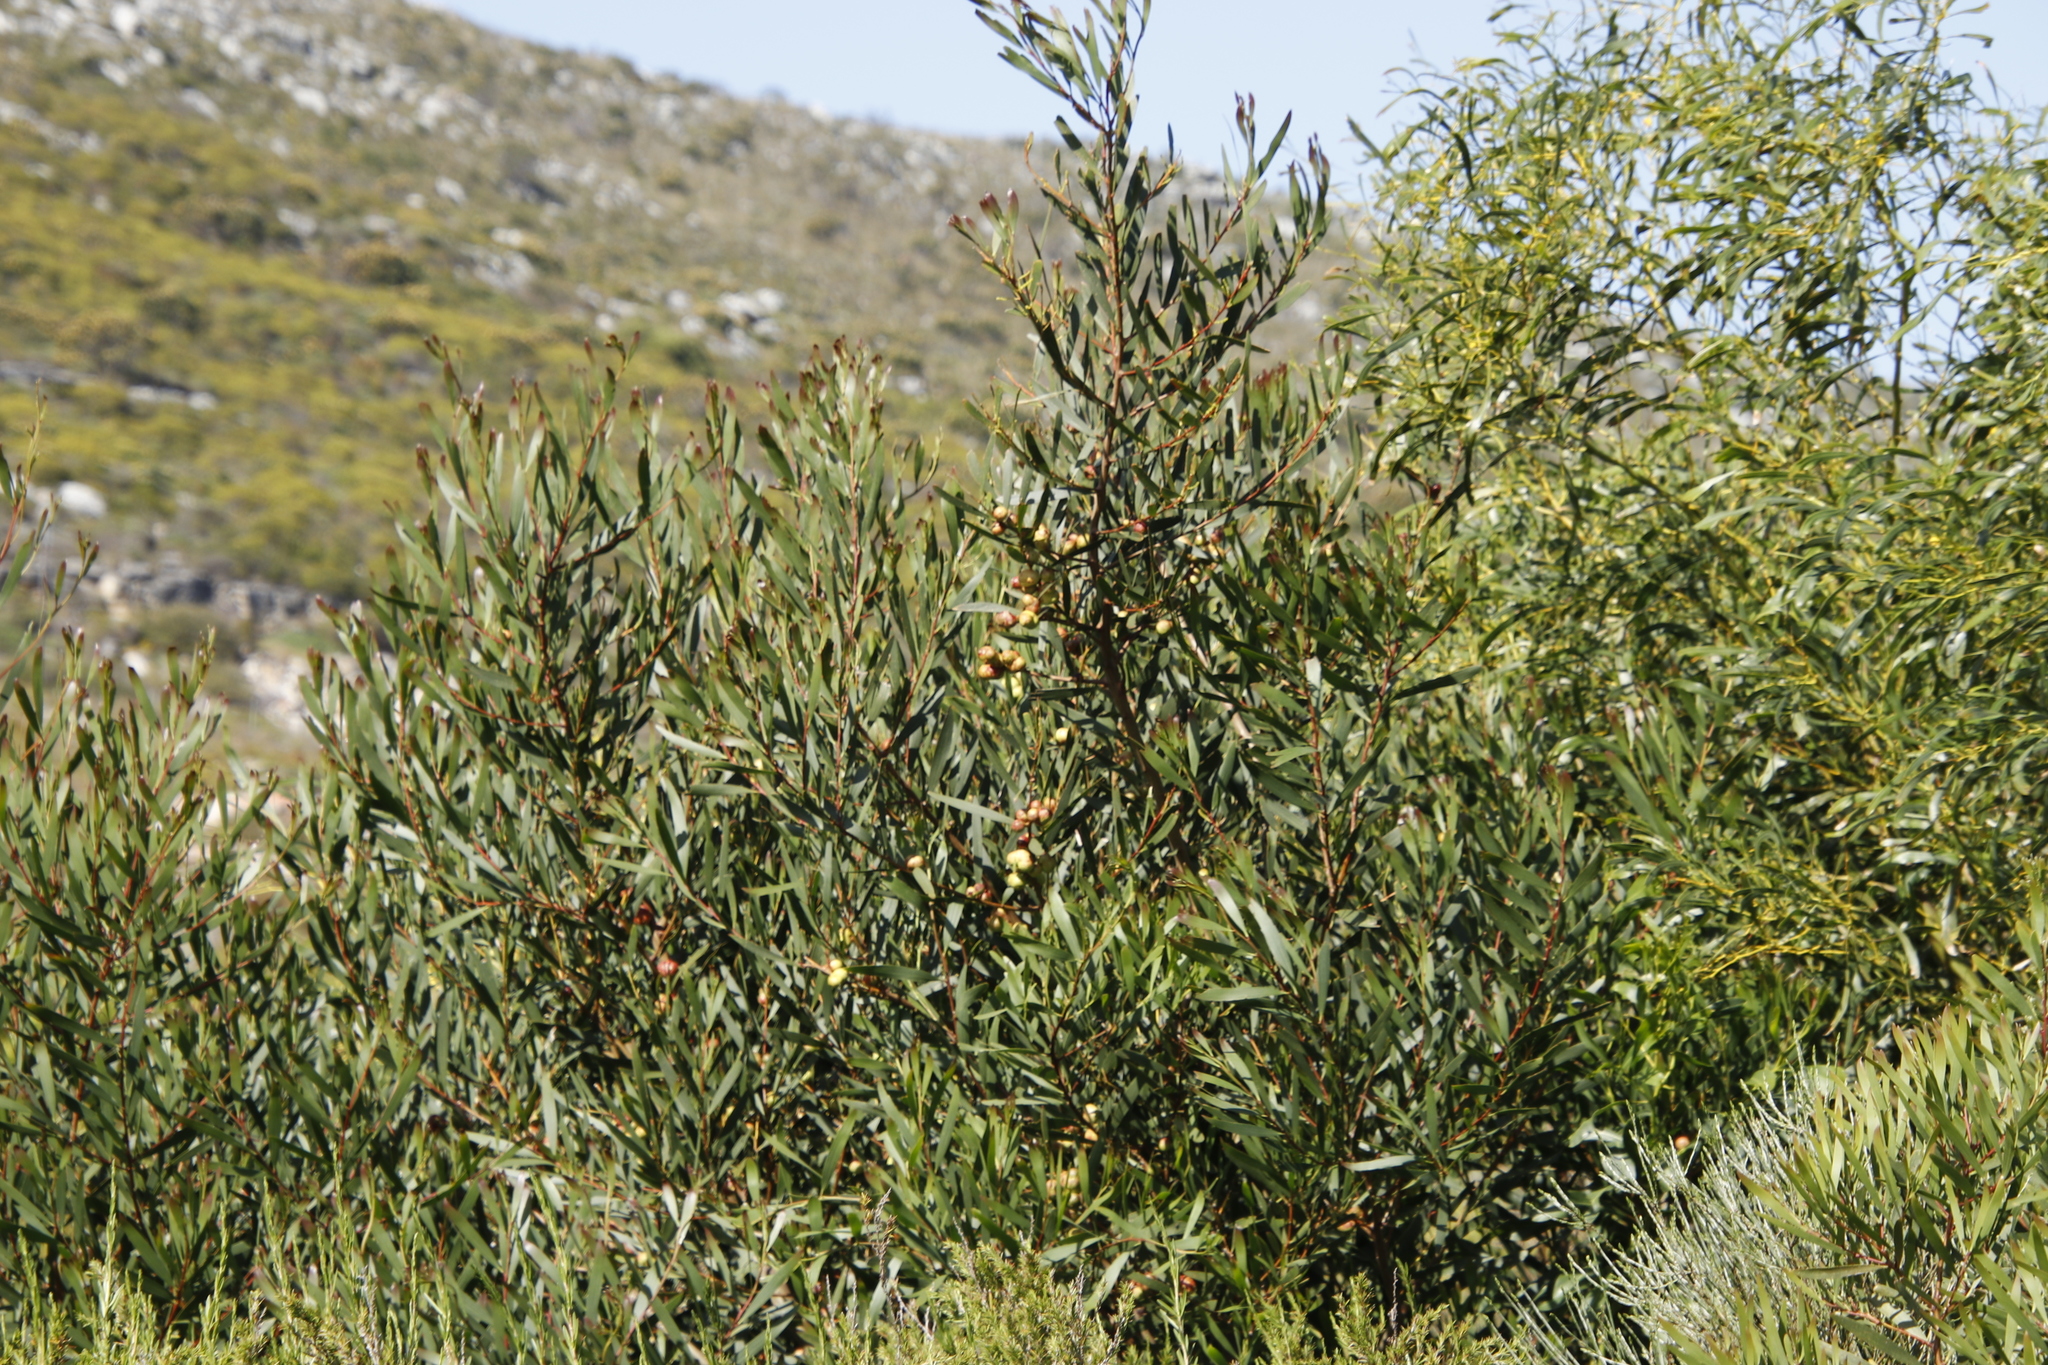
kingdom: Animalia
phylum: Arthropoda
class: Insecta
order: Hymenoptera
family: Pteromalidae
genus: Trichilogaster
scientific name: Trichilogaster acaciaelongifoliae
